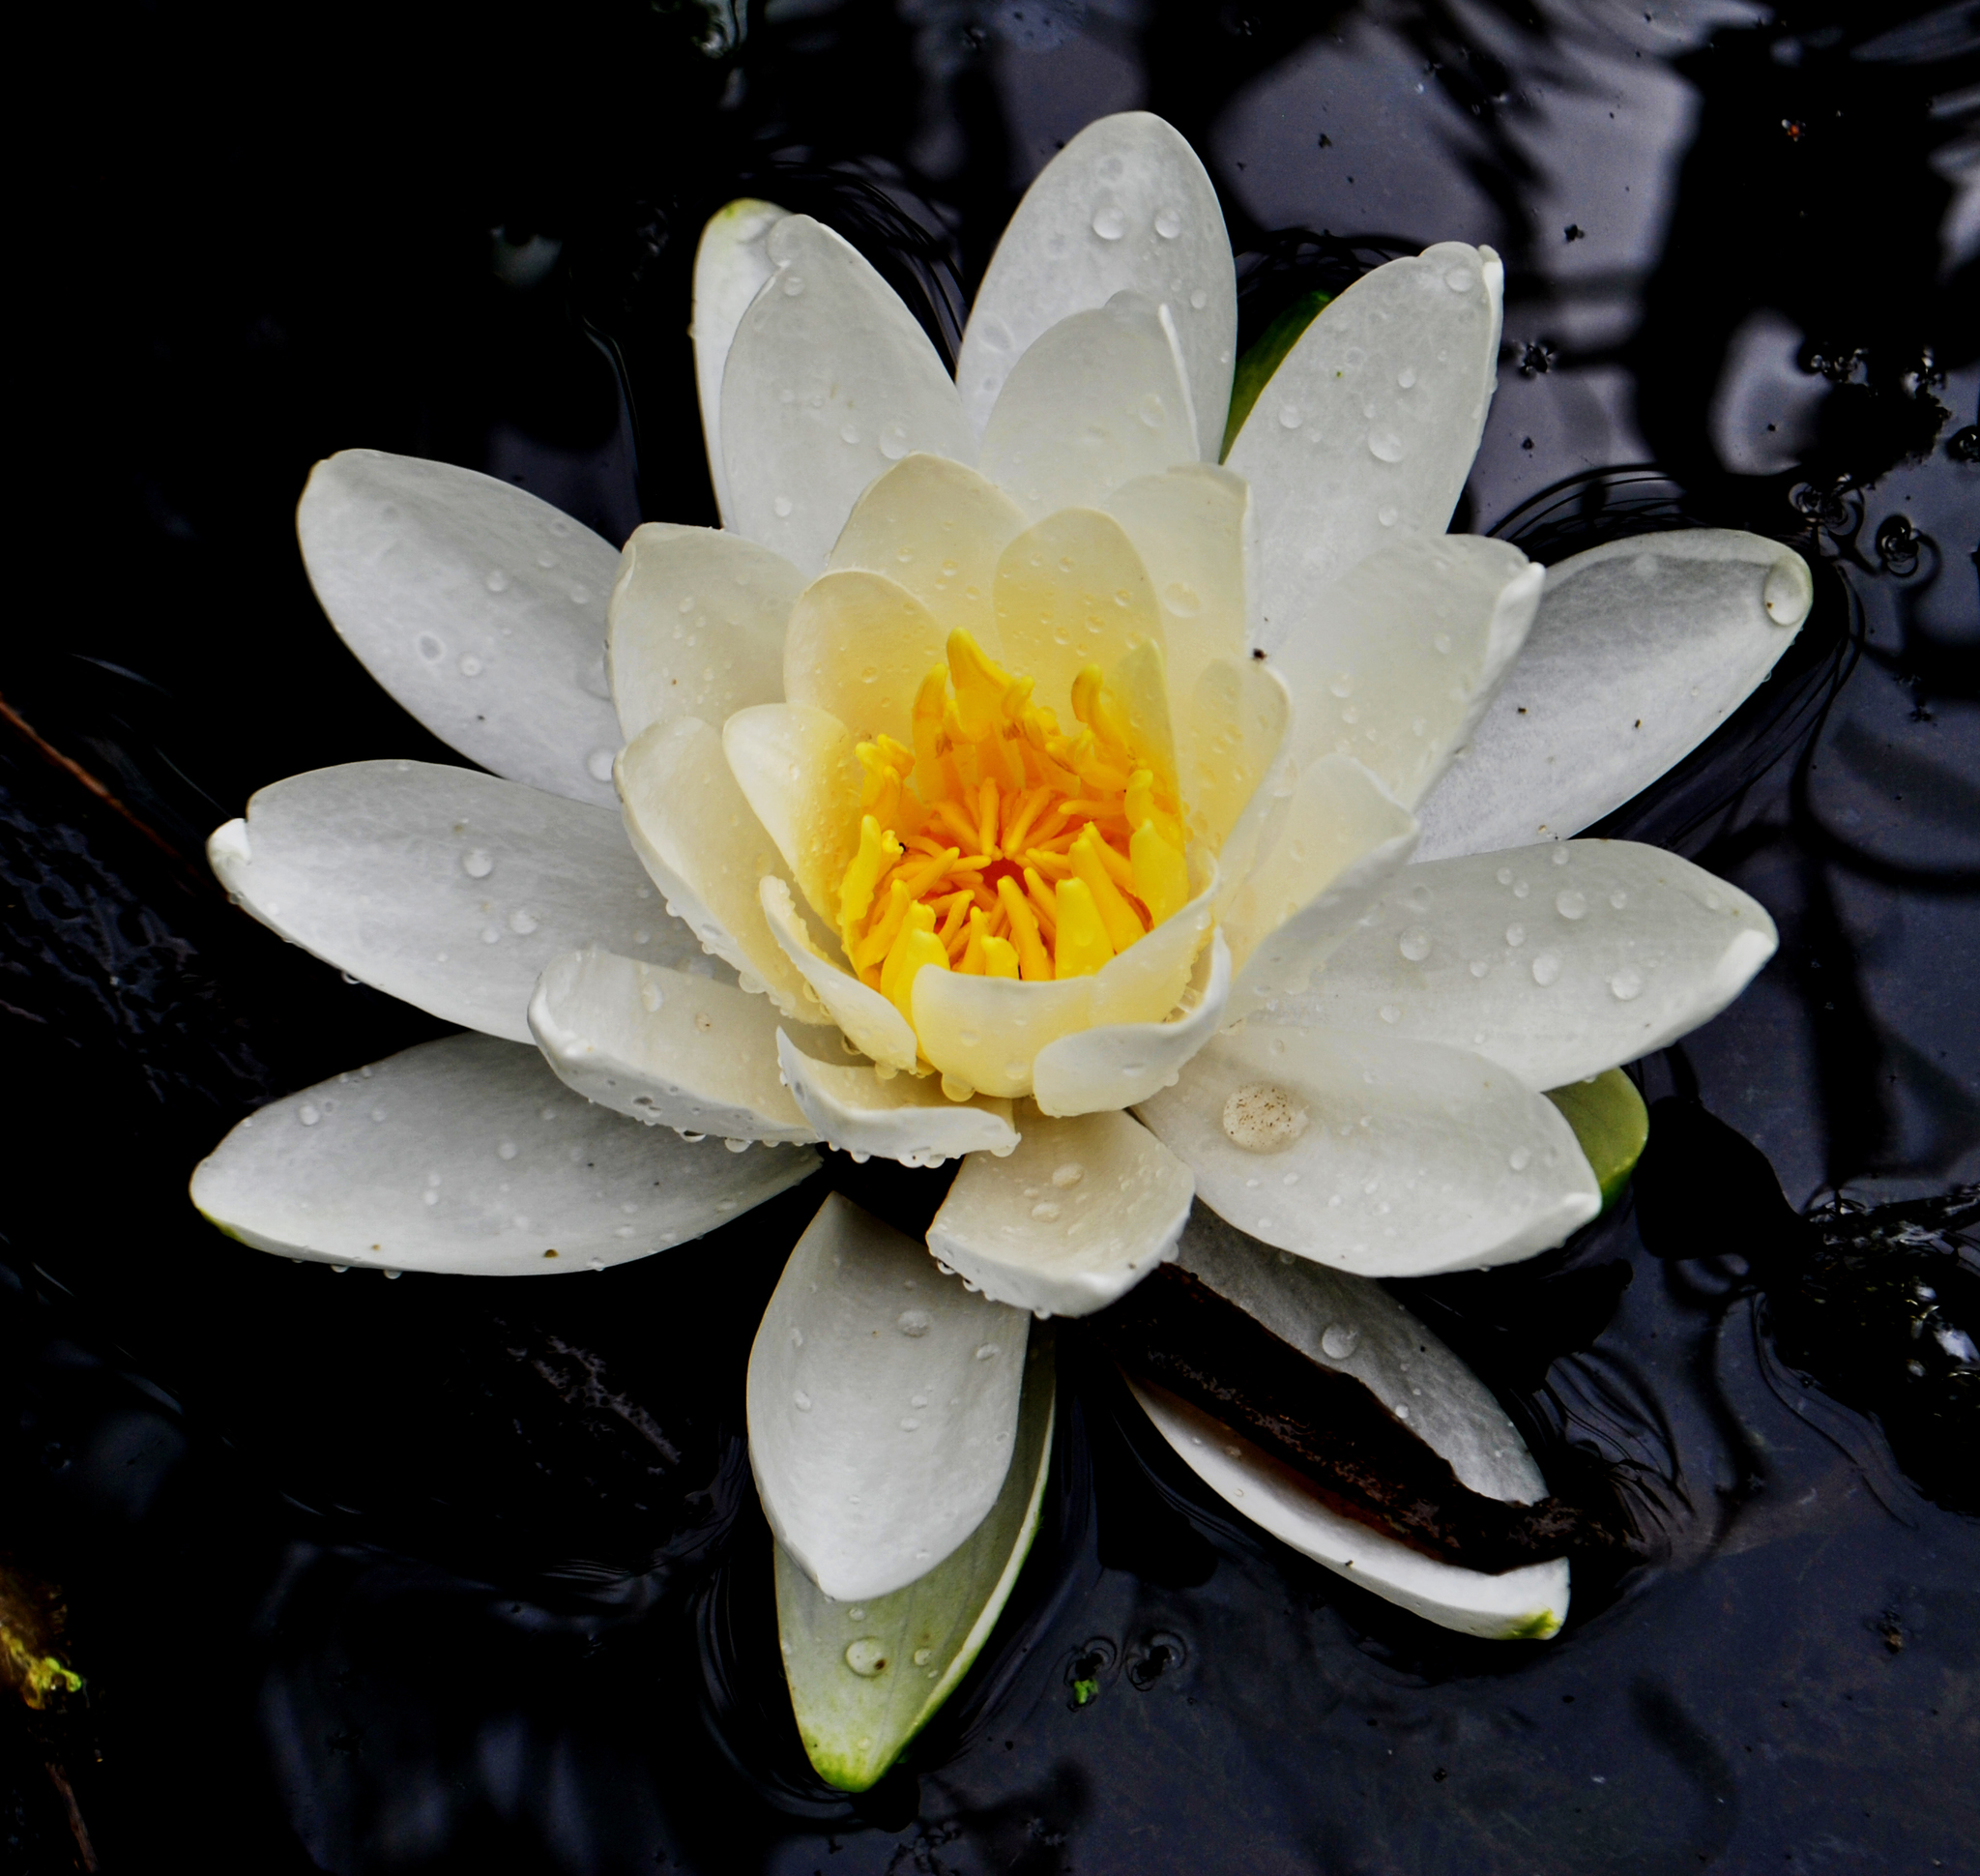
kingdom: Plantae
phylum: Tracheophyta
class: Magnoliopsida
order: Nymphaeales
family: Nymphaeaceae
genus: Nymphaea
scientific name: Nymphaea odorata
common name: Fragrant water-lily
